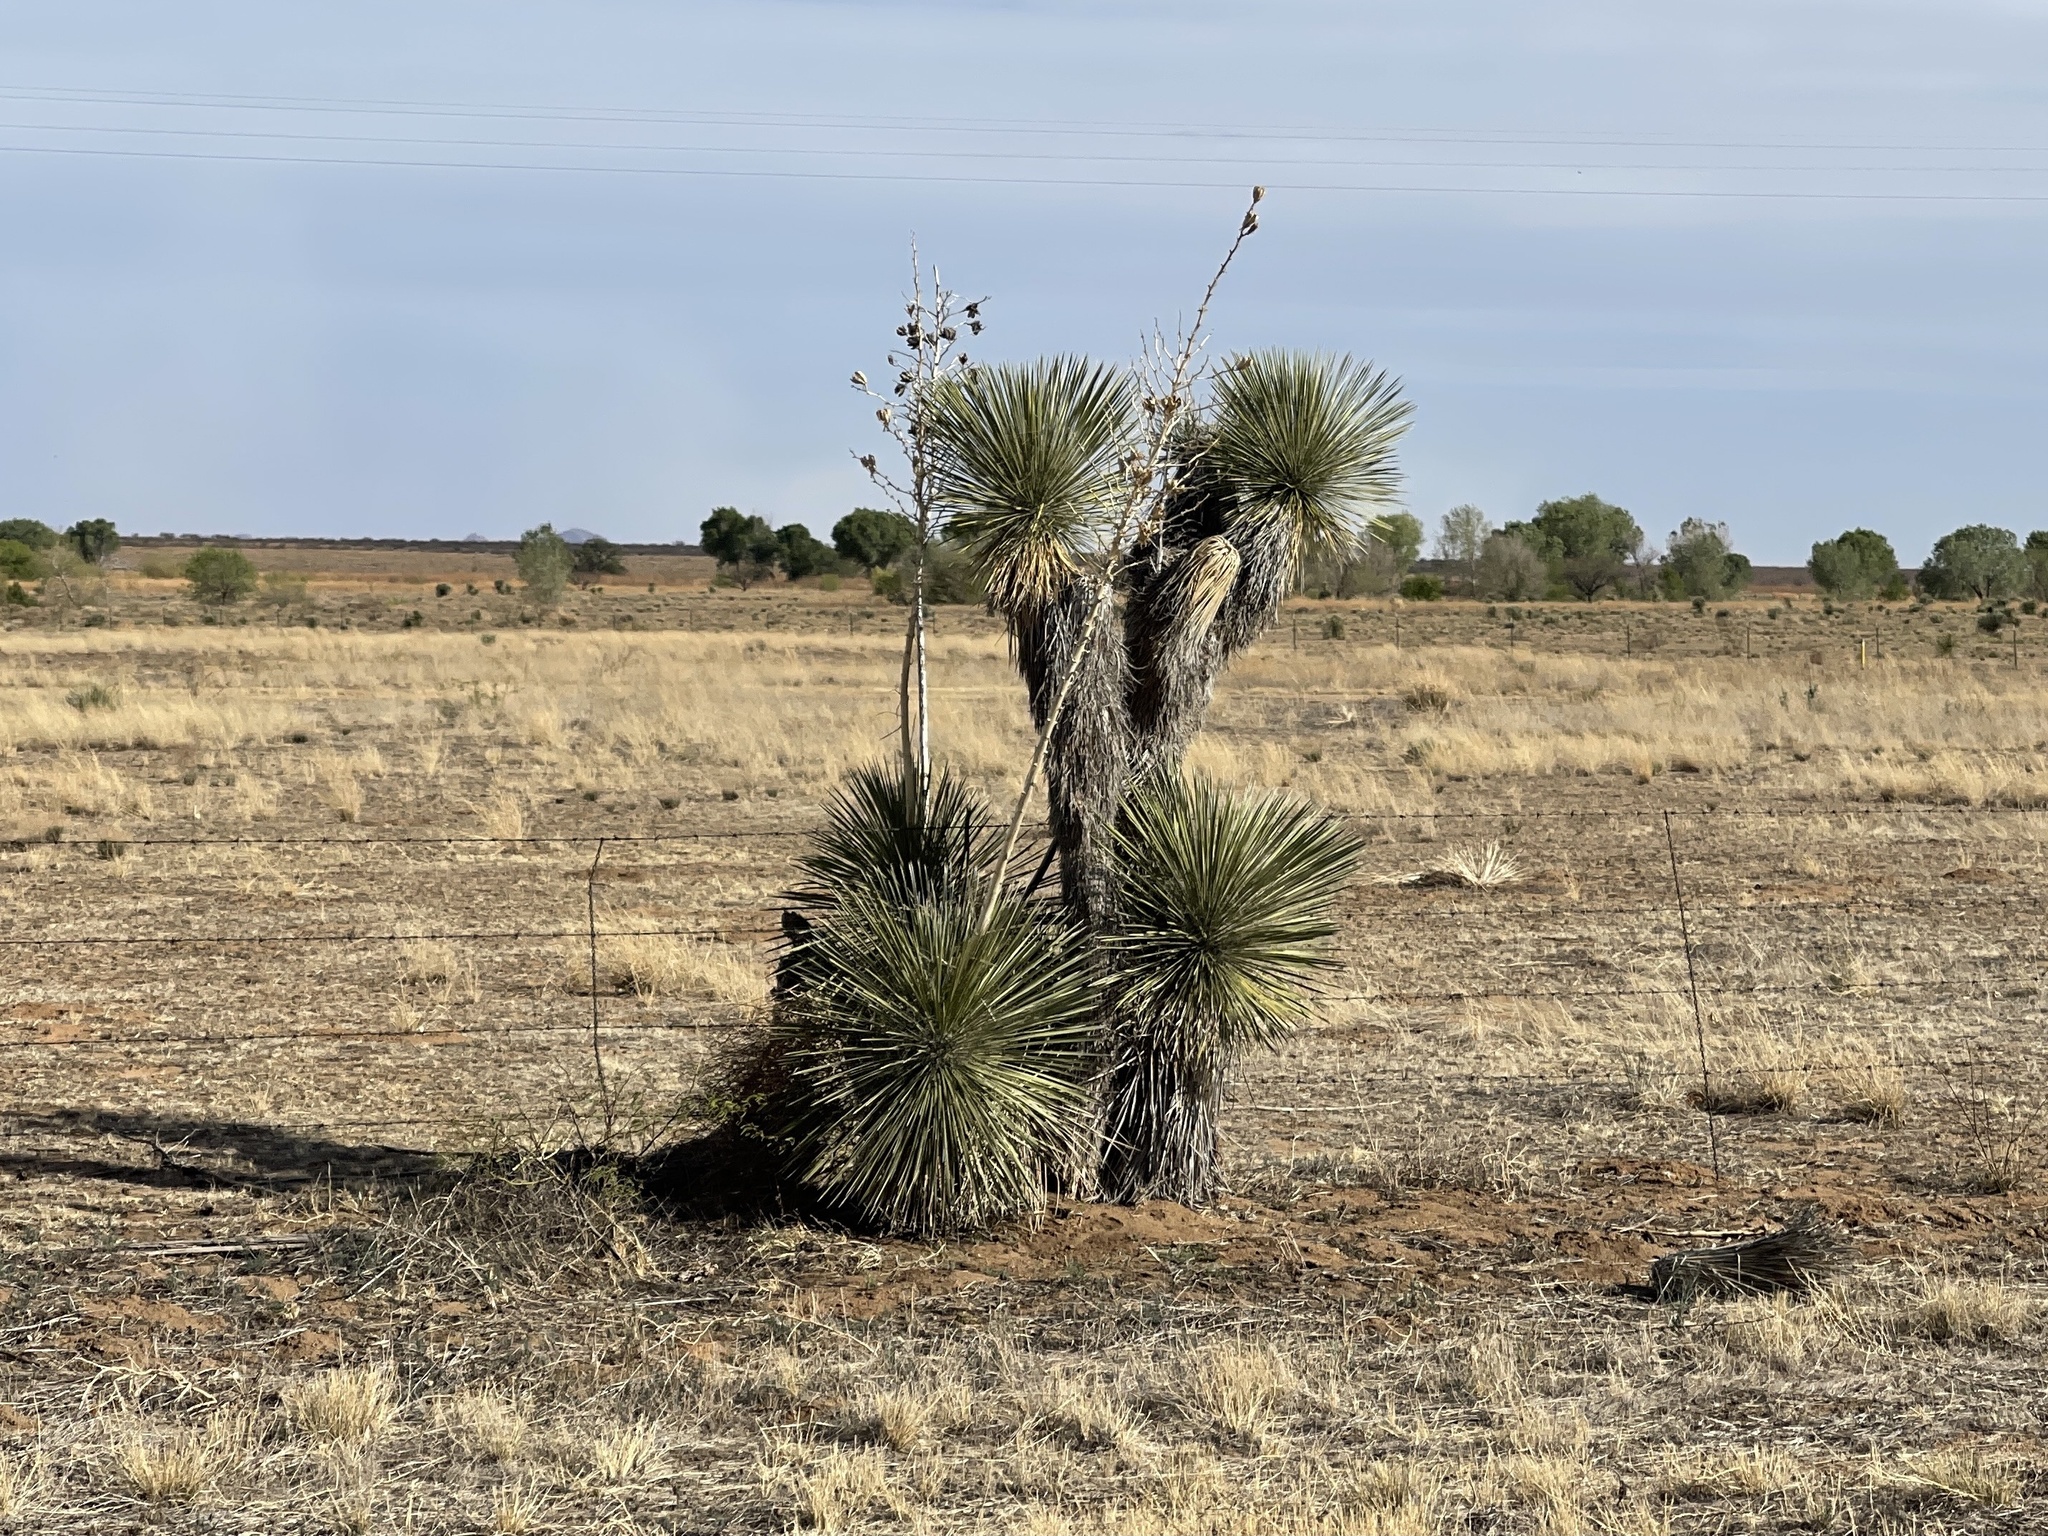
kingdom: Plantae
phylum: Tracheophyta
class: Liliopsida
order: Asparagales
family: Asparagaceae
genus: Yucca
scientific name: Yucca elata
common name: Palmella
